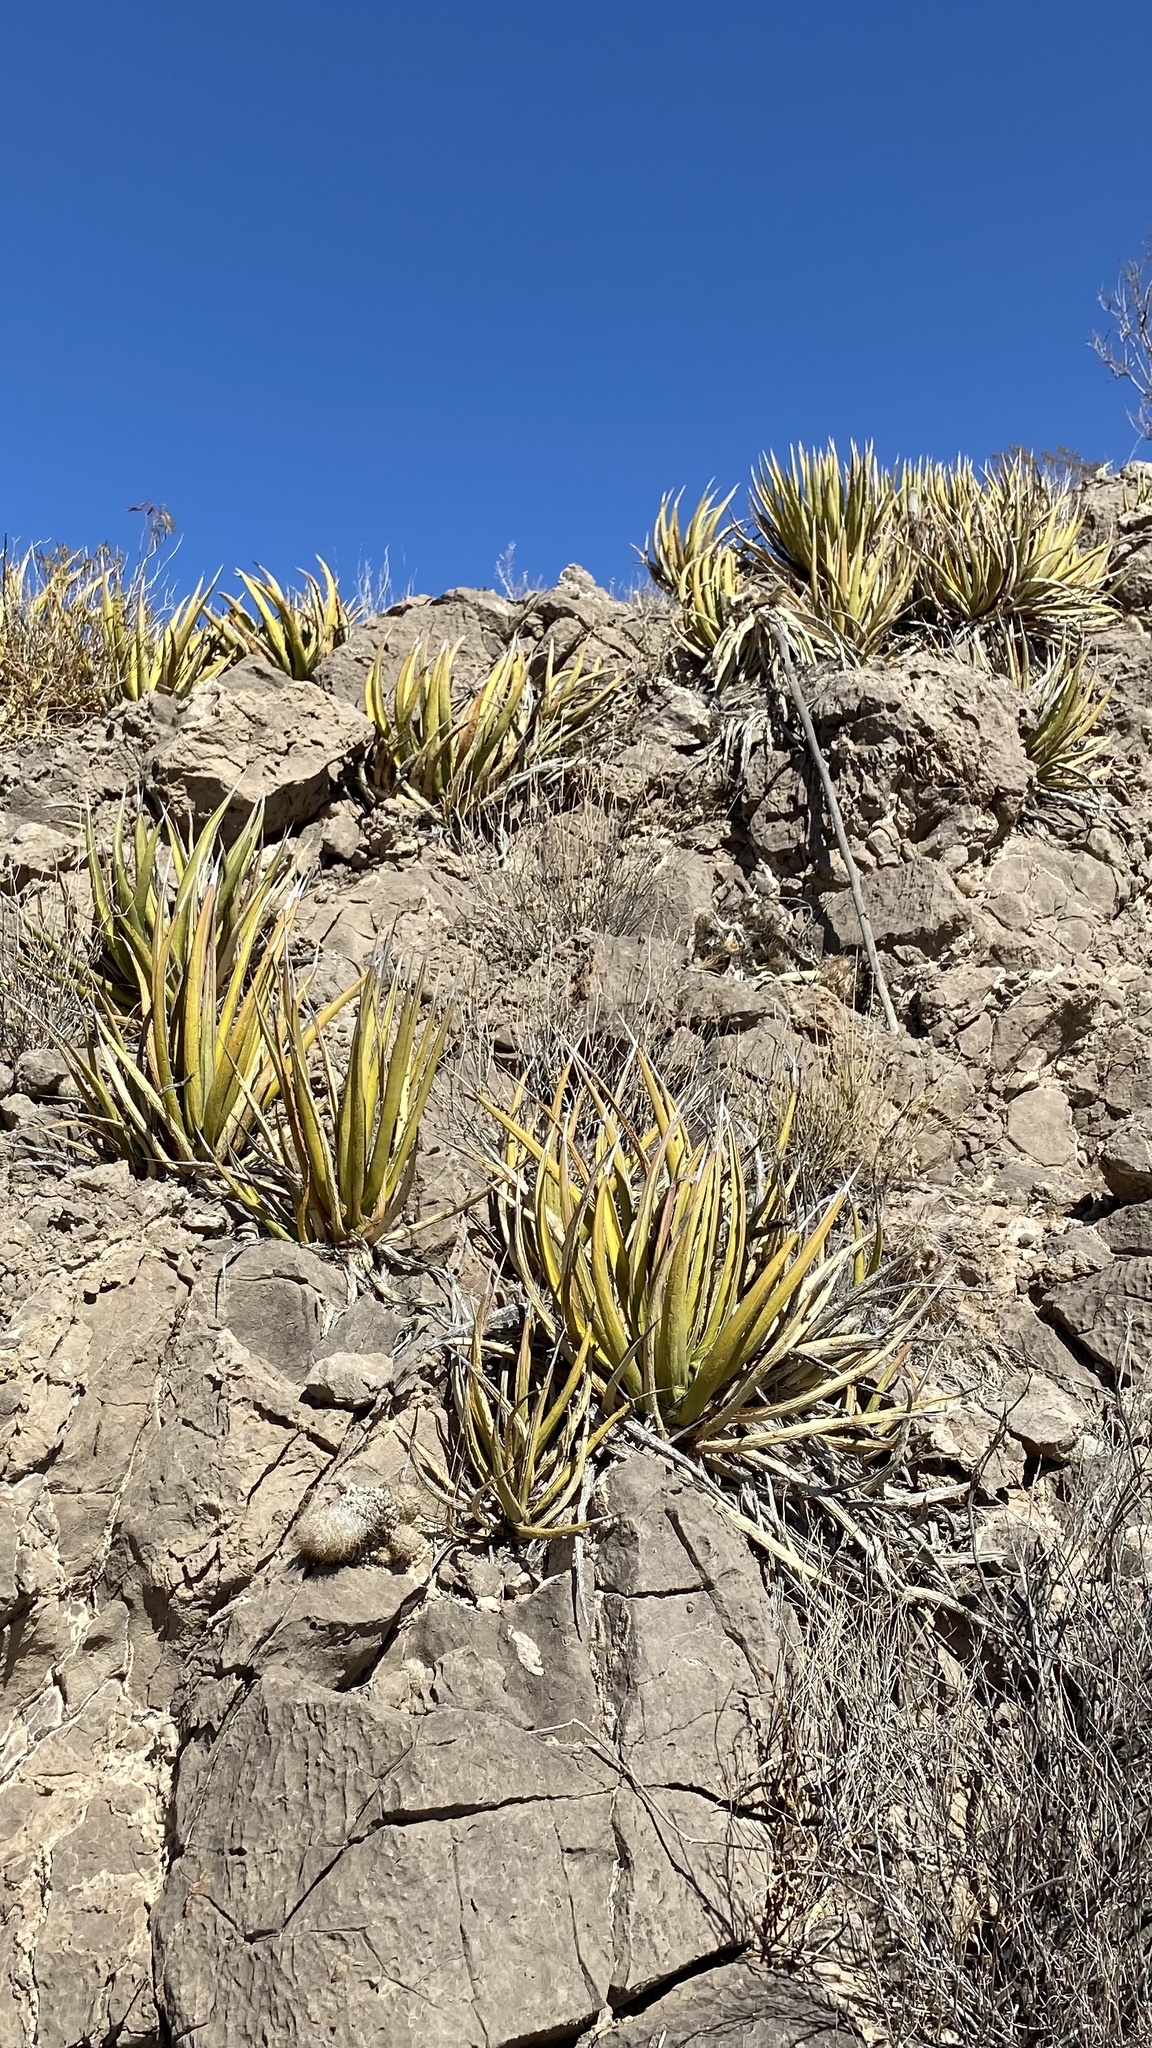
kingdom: Plantae
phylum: Tracheophyta
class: Liliopsida
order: Asparagales
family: Asparagaceae
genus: Agave
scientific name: Agave lechuguilla
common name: Lecheguilla agave
